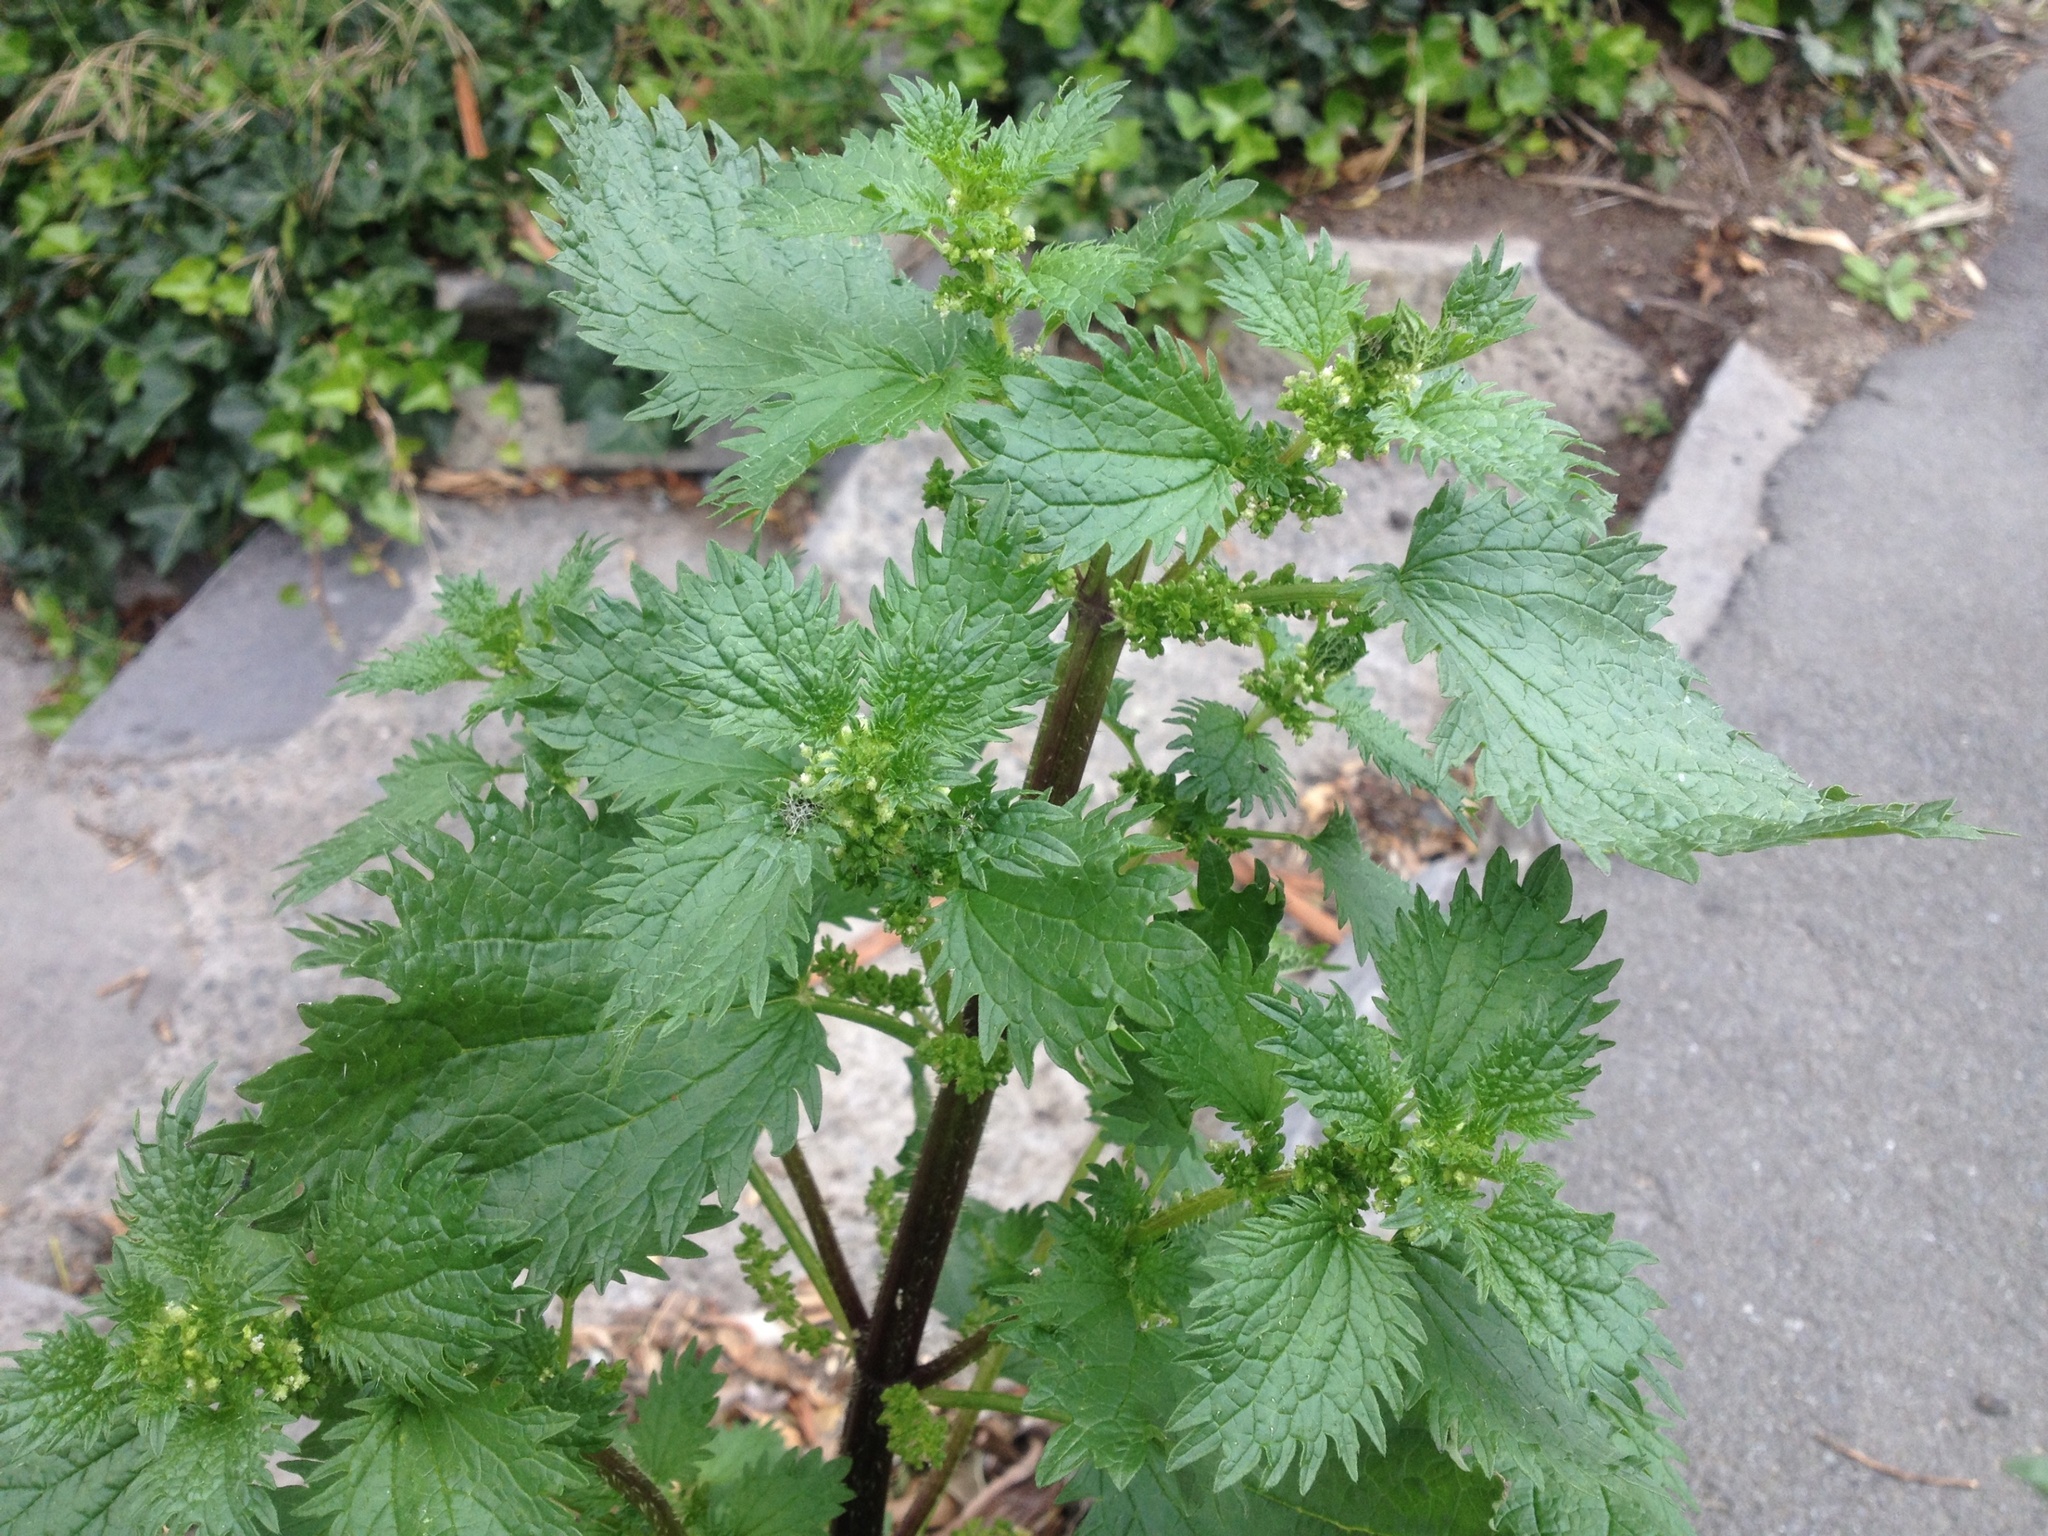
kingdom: Plantae
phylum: Tracheophyta
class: Magnoliopsida
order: Rosales
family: Urticaceae
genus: Urtica
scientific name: Urtica urens
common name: Dwarf nettle
